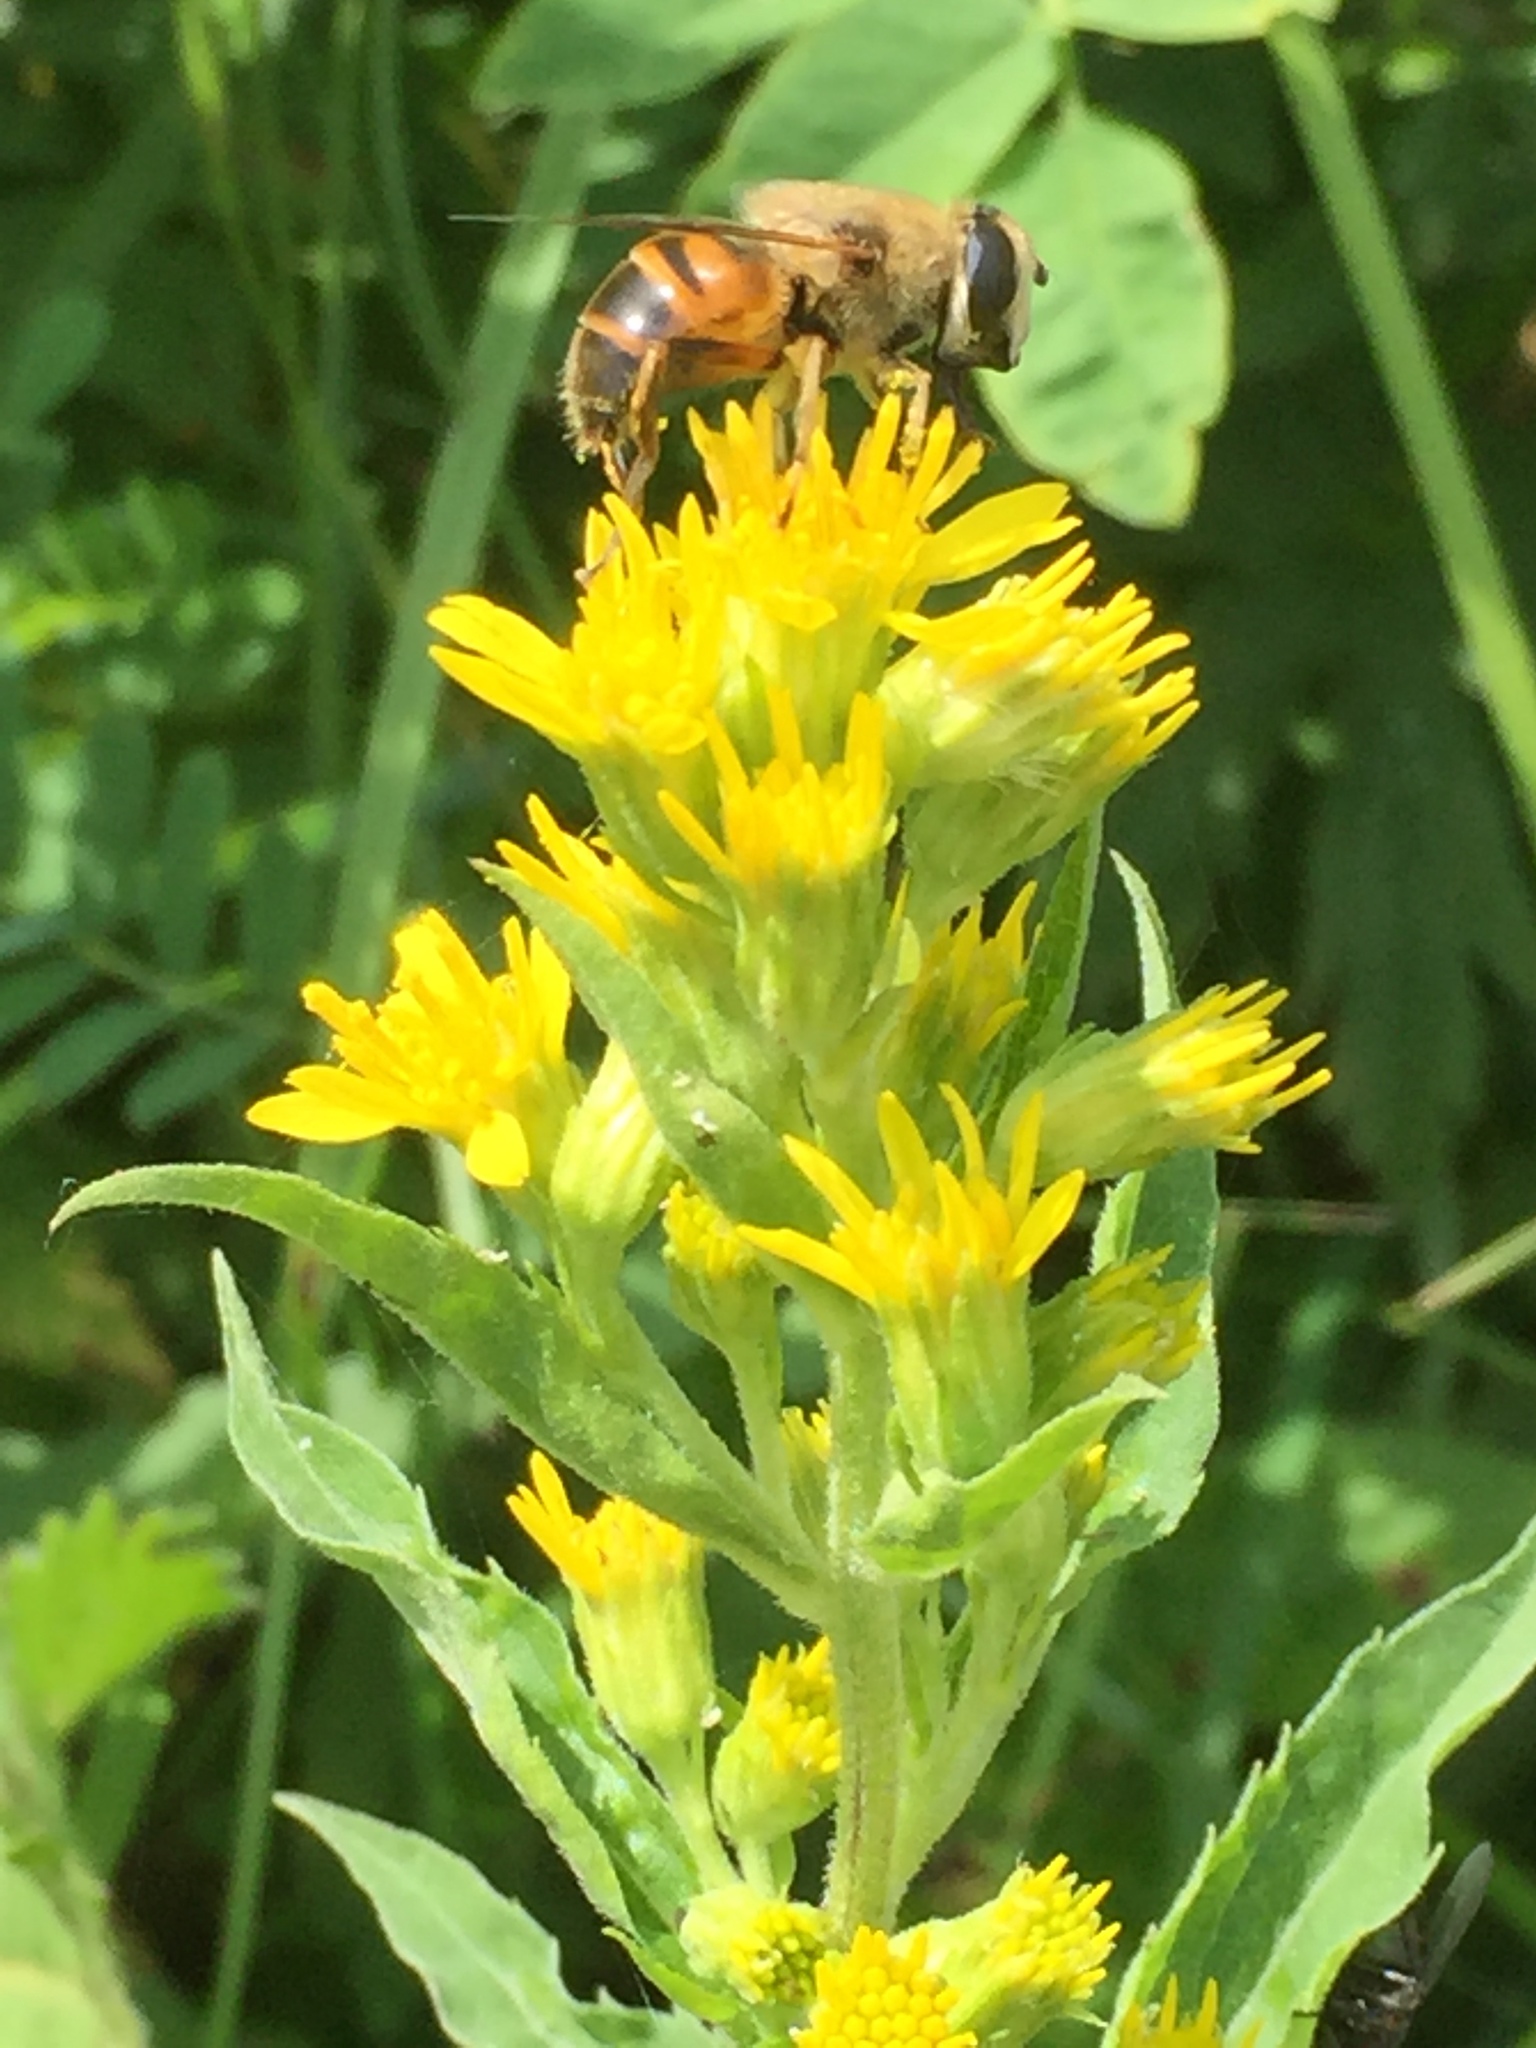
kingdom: Animalia
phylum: Arthropoda
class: Insecta
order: Diptera
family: Syrphidae
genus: Eristalis
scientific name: Eristalis tenax
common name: Drone fly
